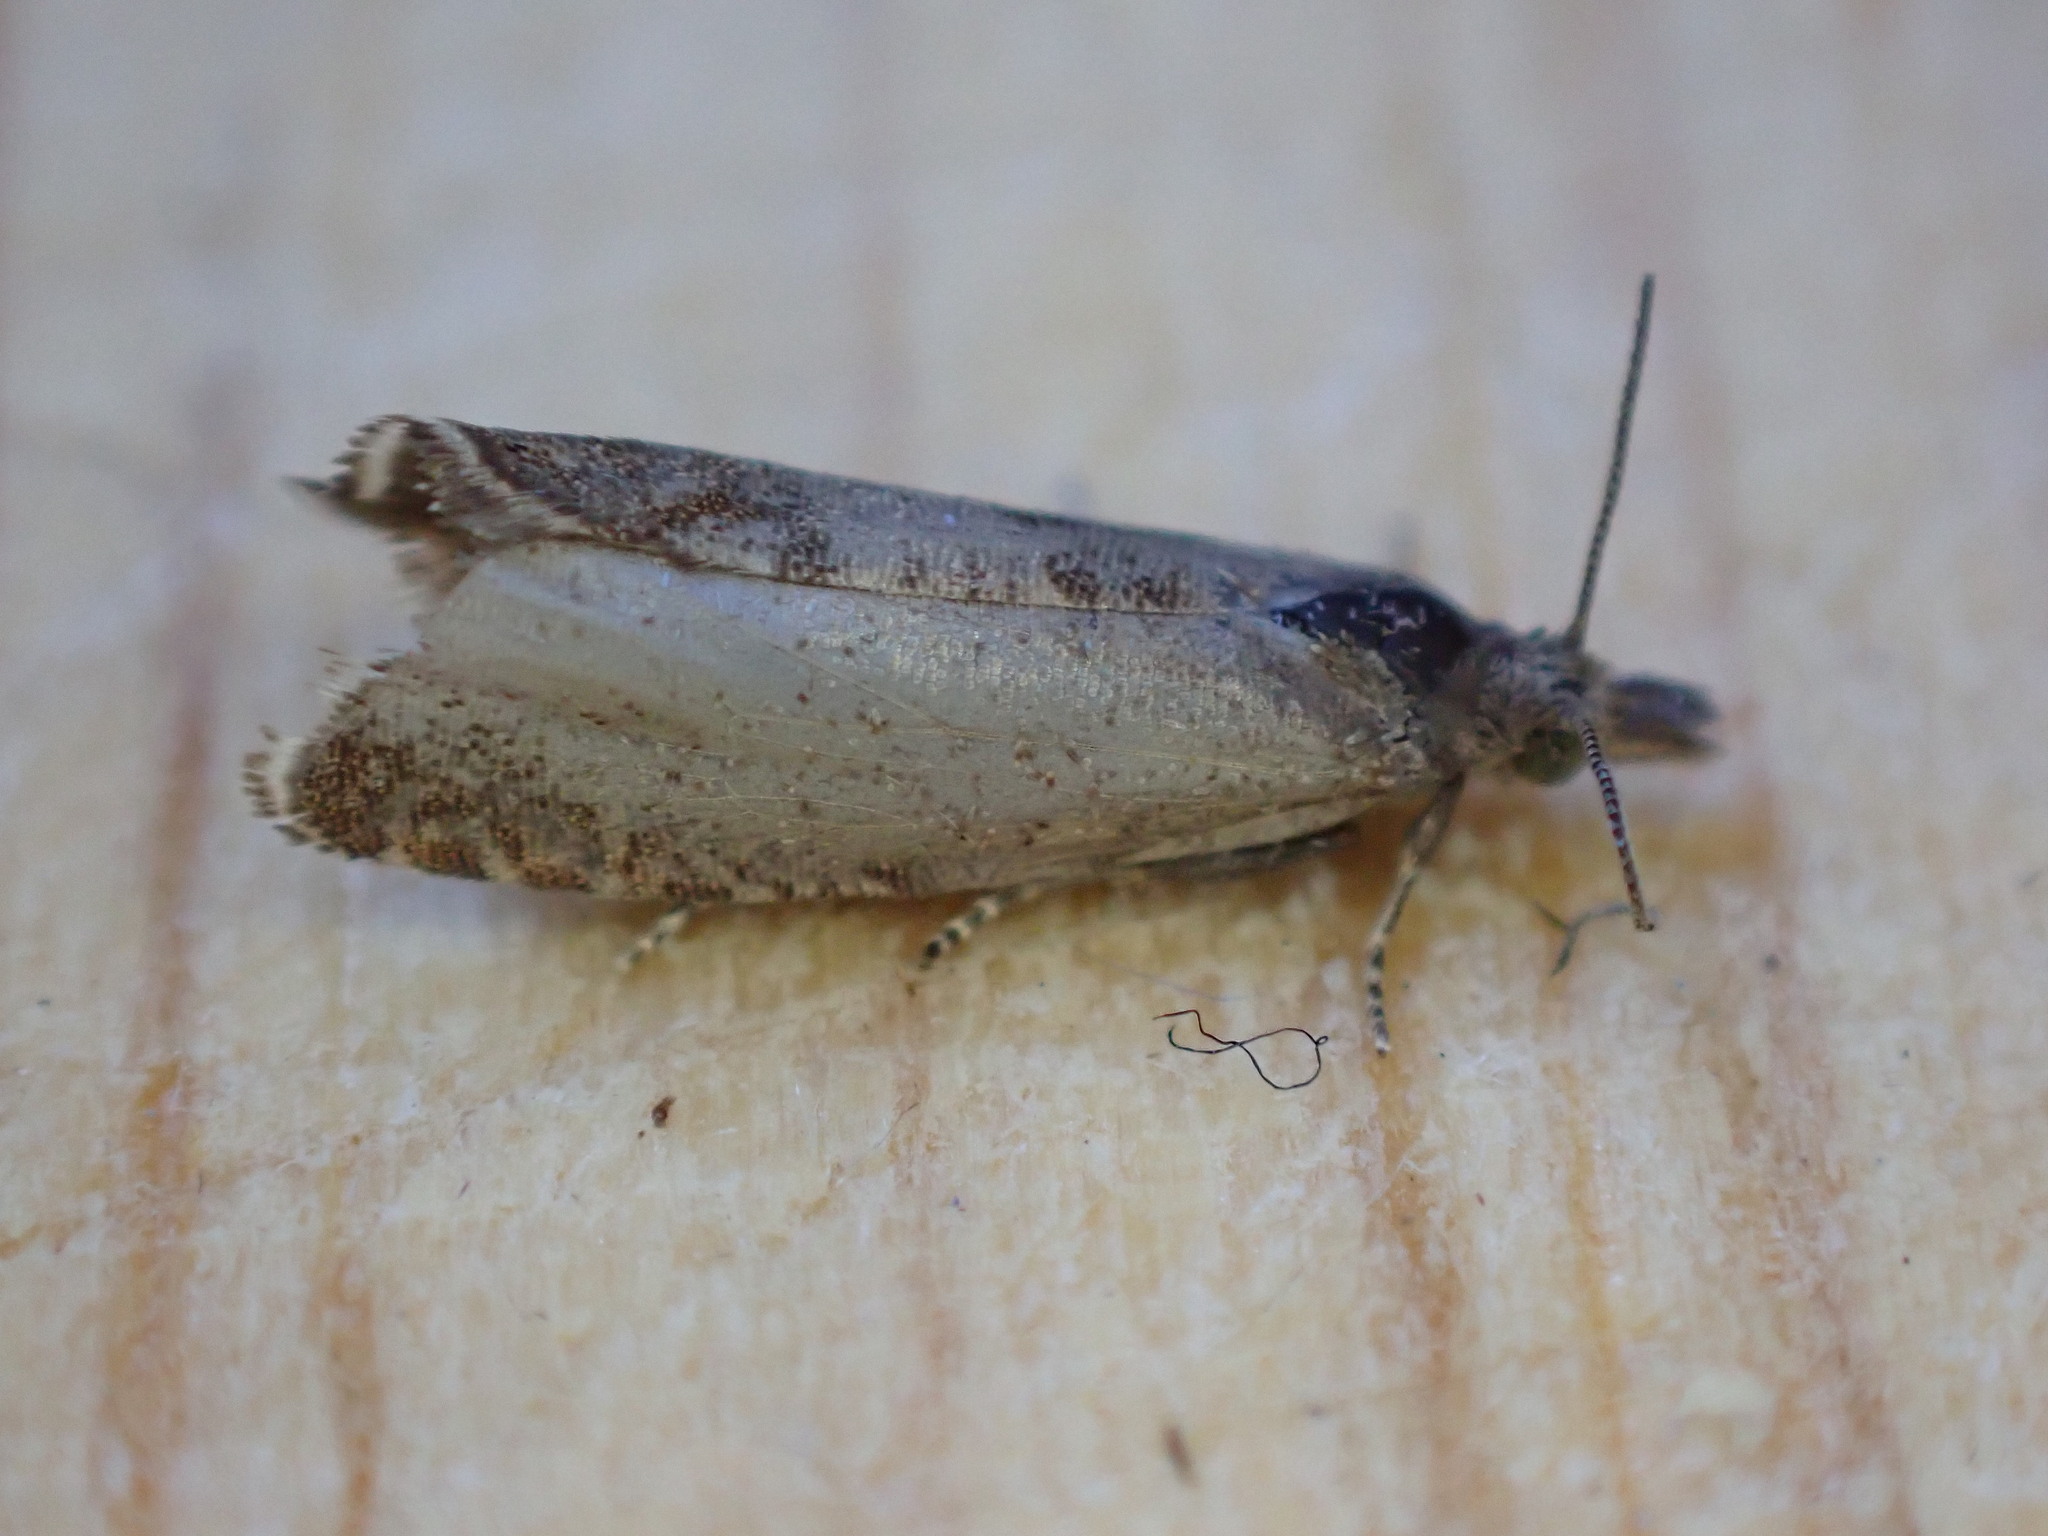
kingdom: Animalia
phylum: Arthropoda
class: Insecta
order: Lepidoptera
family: Tortricidae
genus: Dichrorampha
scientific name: Dichrorampha acuminatana
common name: Sharp-winged drill
